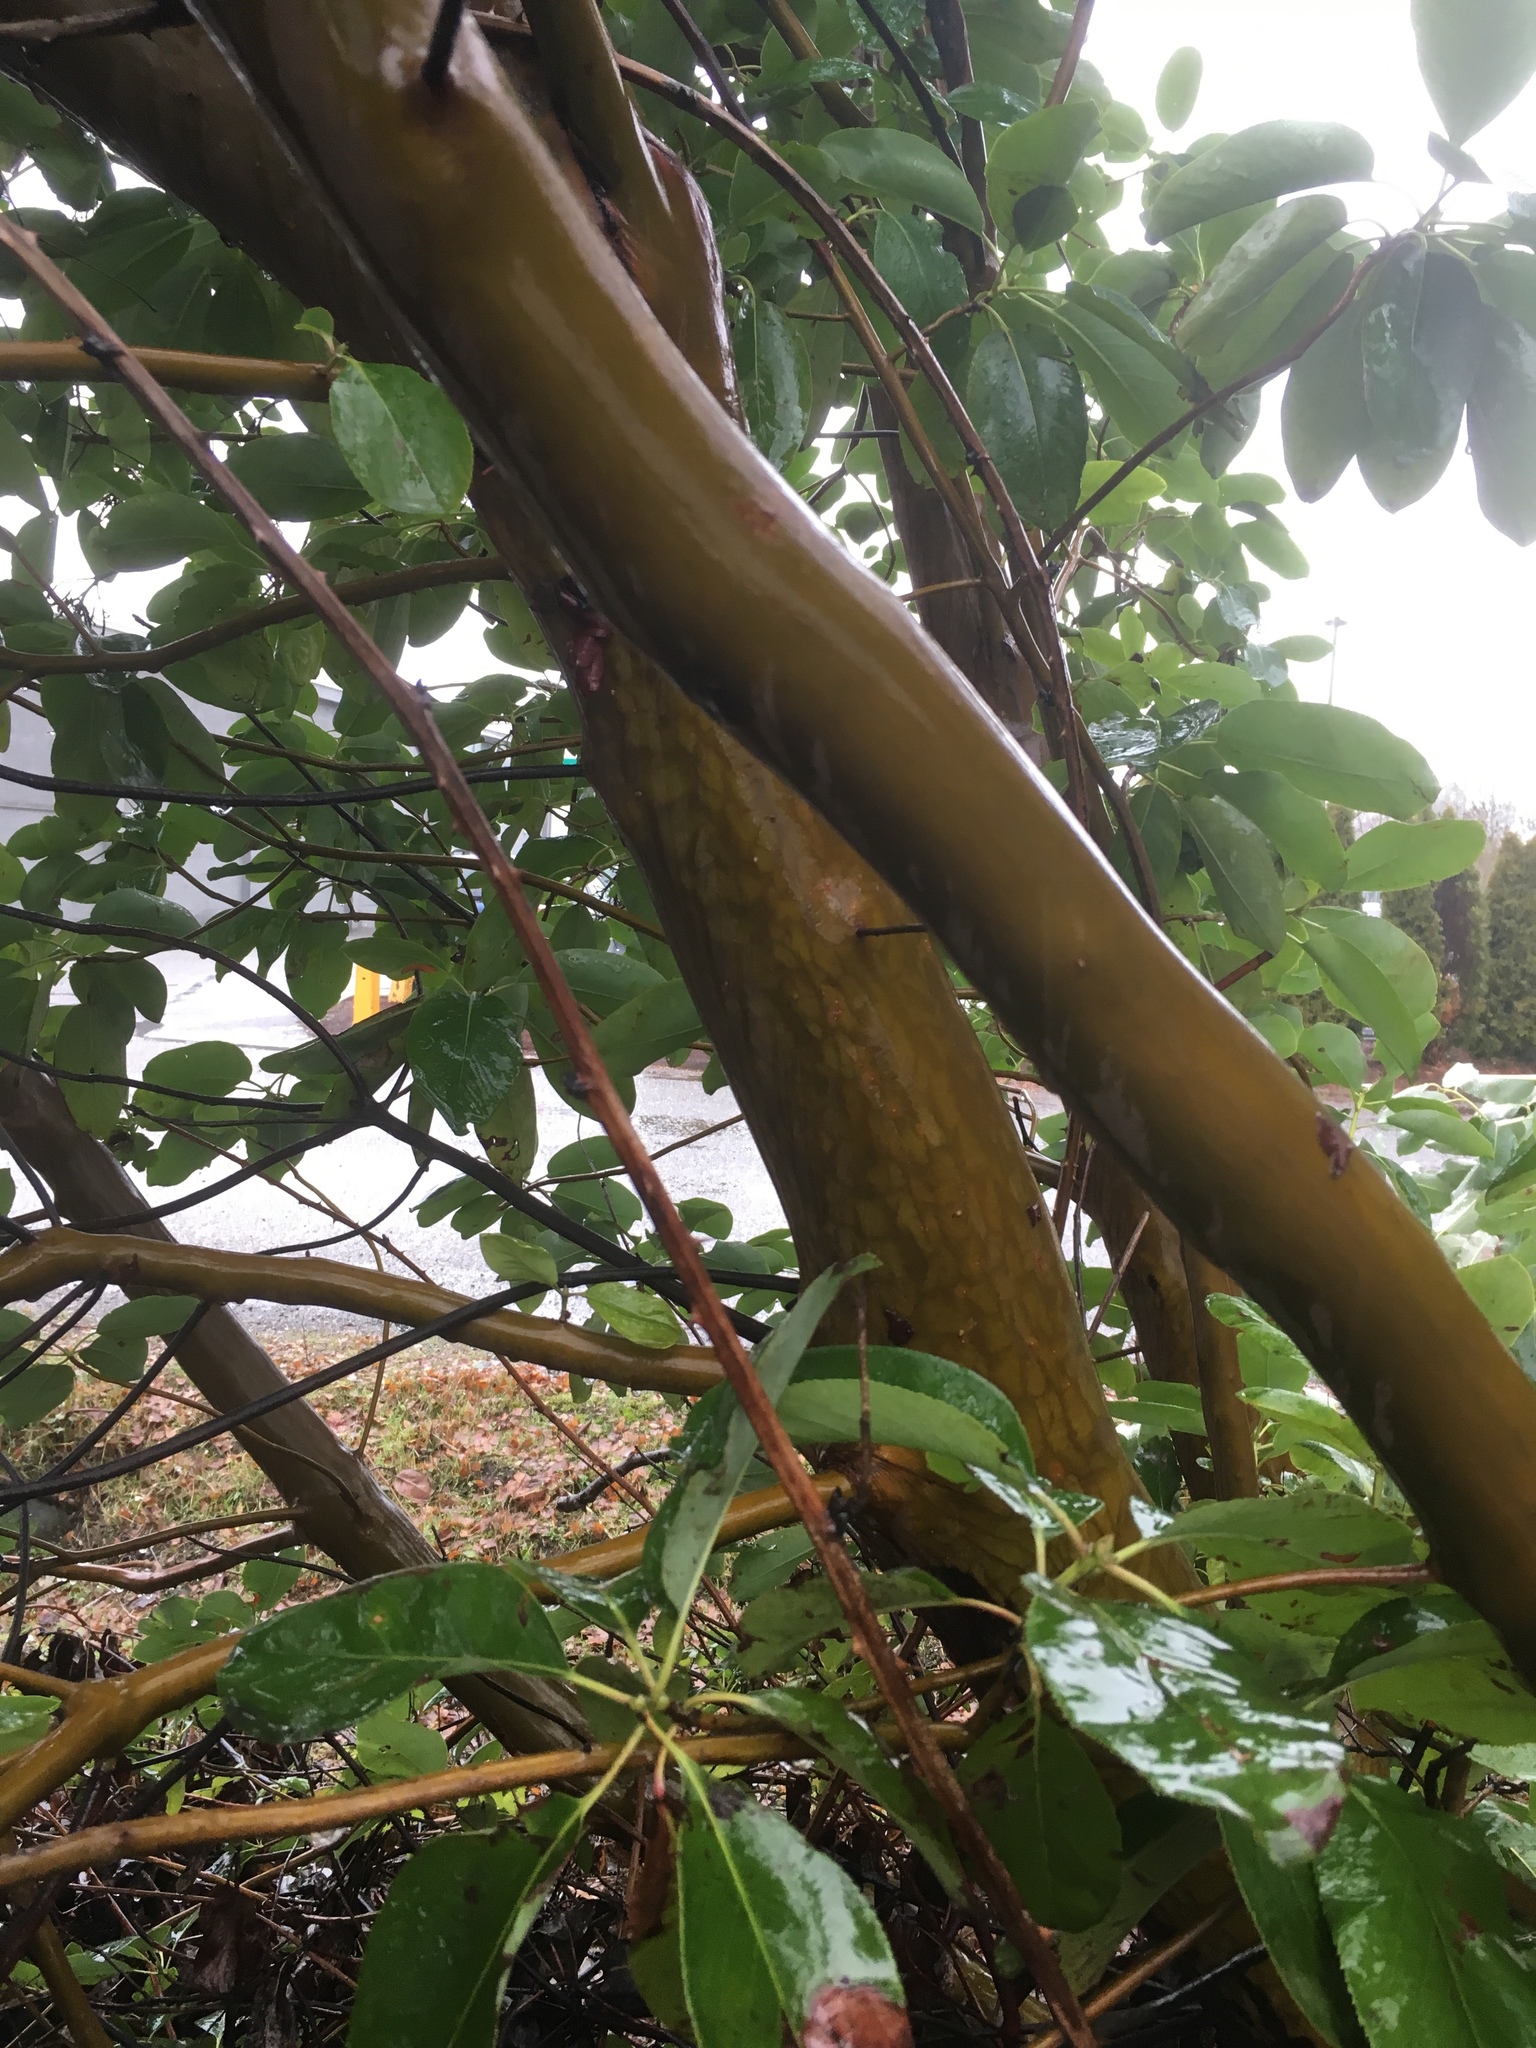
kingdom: Plantae
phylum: Tracheophyta
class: Magnoliopsida
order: Ericales
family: Ericaceae
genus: Arbutus
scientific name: Arbutus menziesii
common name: Pacific madrone
